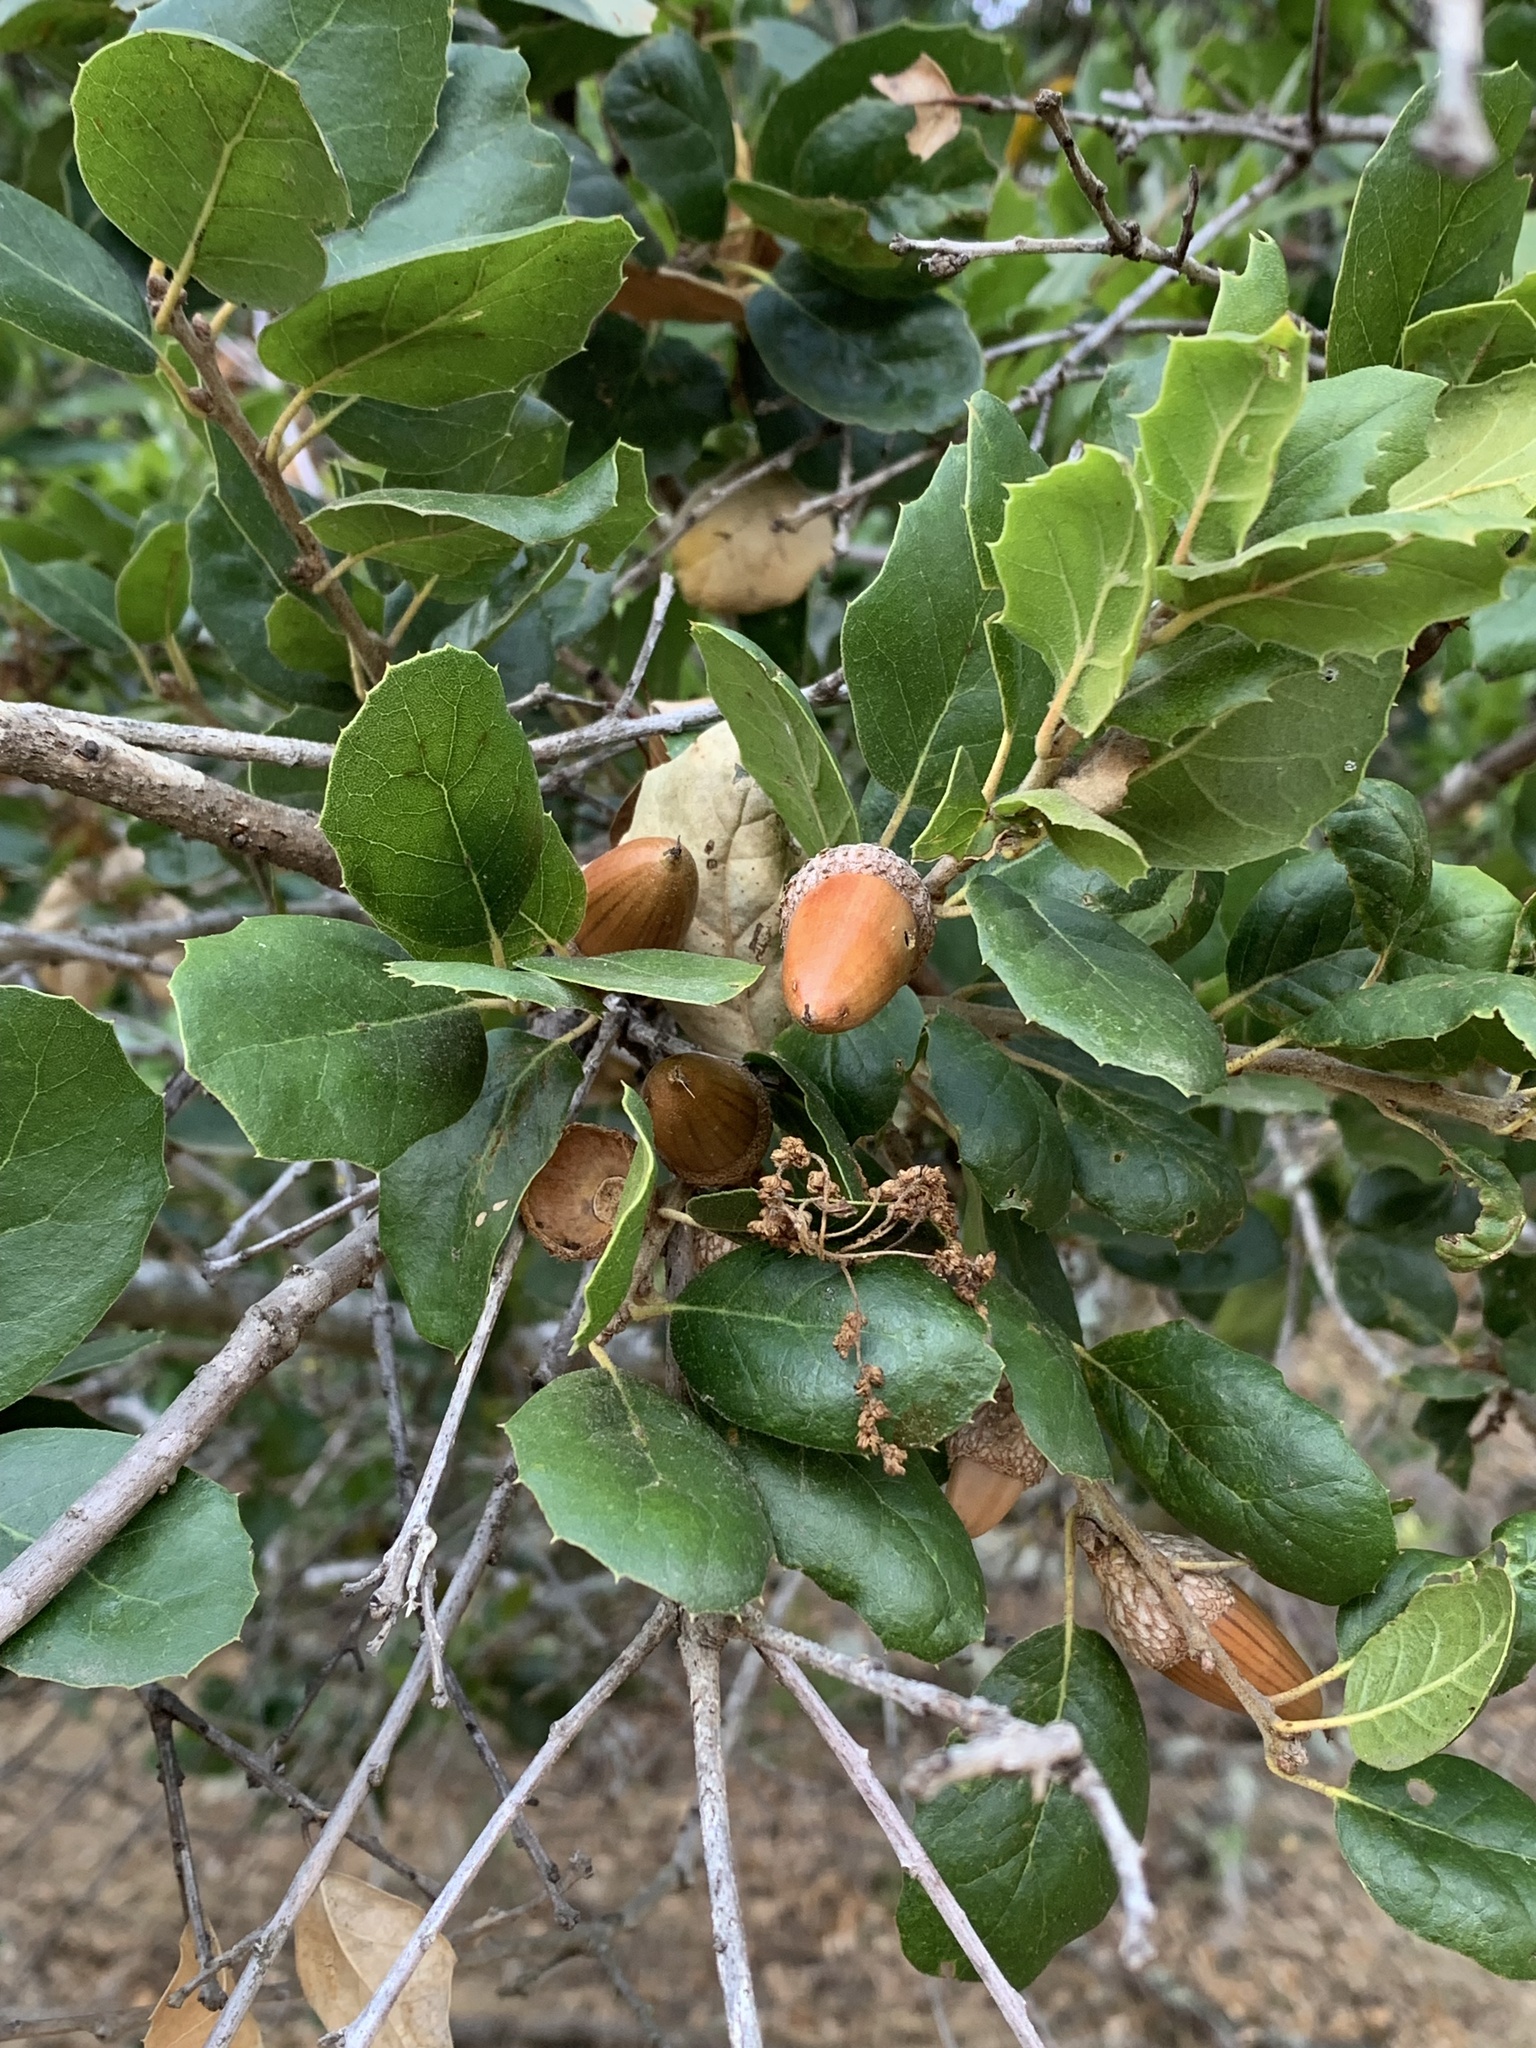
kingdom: Plantae
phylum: Tracheophyta
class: Magnoliopsida
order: Fagales
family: Fagaceae
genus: Quercus
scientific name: Quercus agrifolia
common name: California live oak
